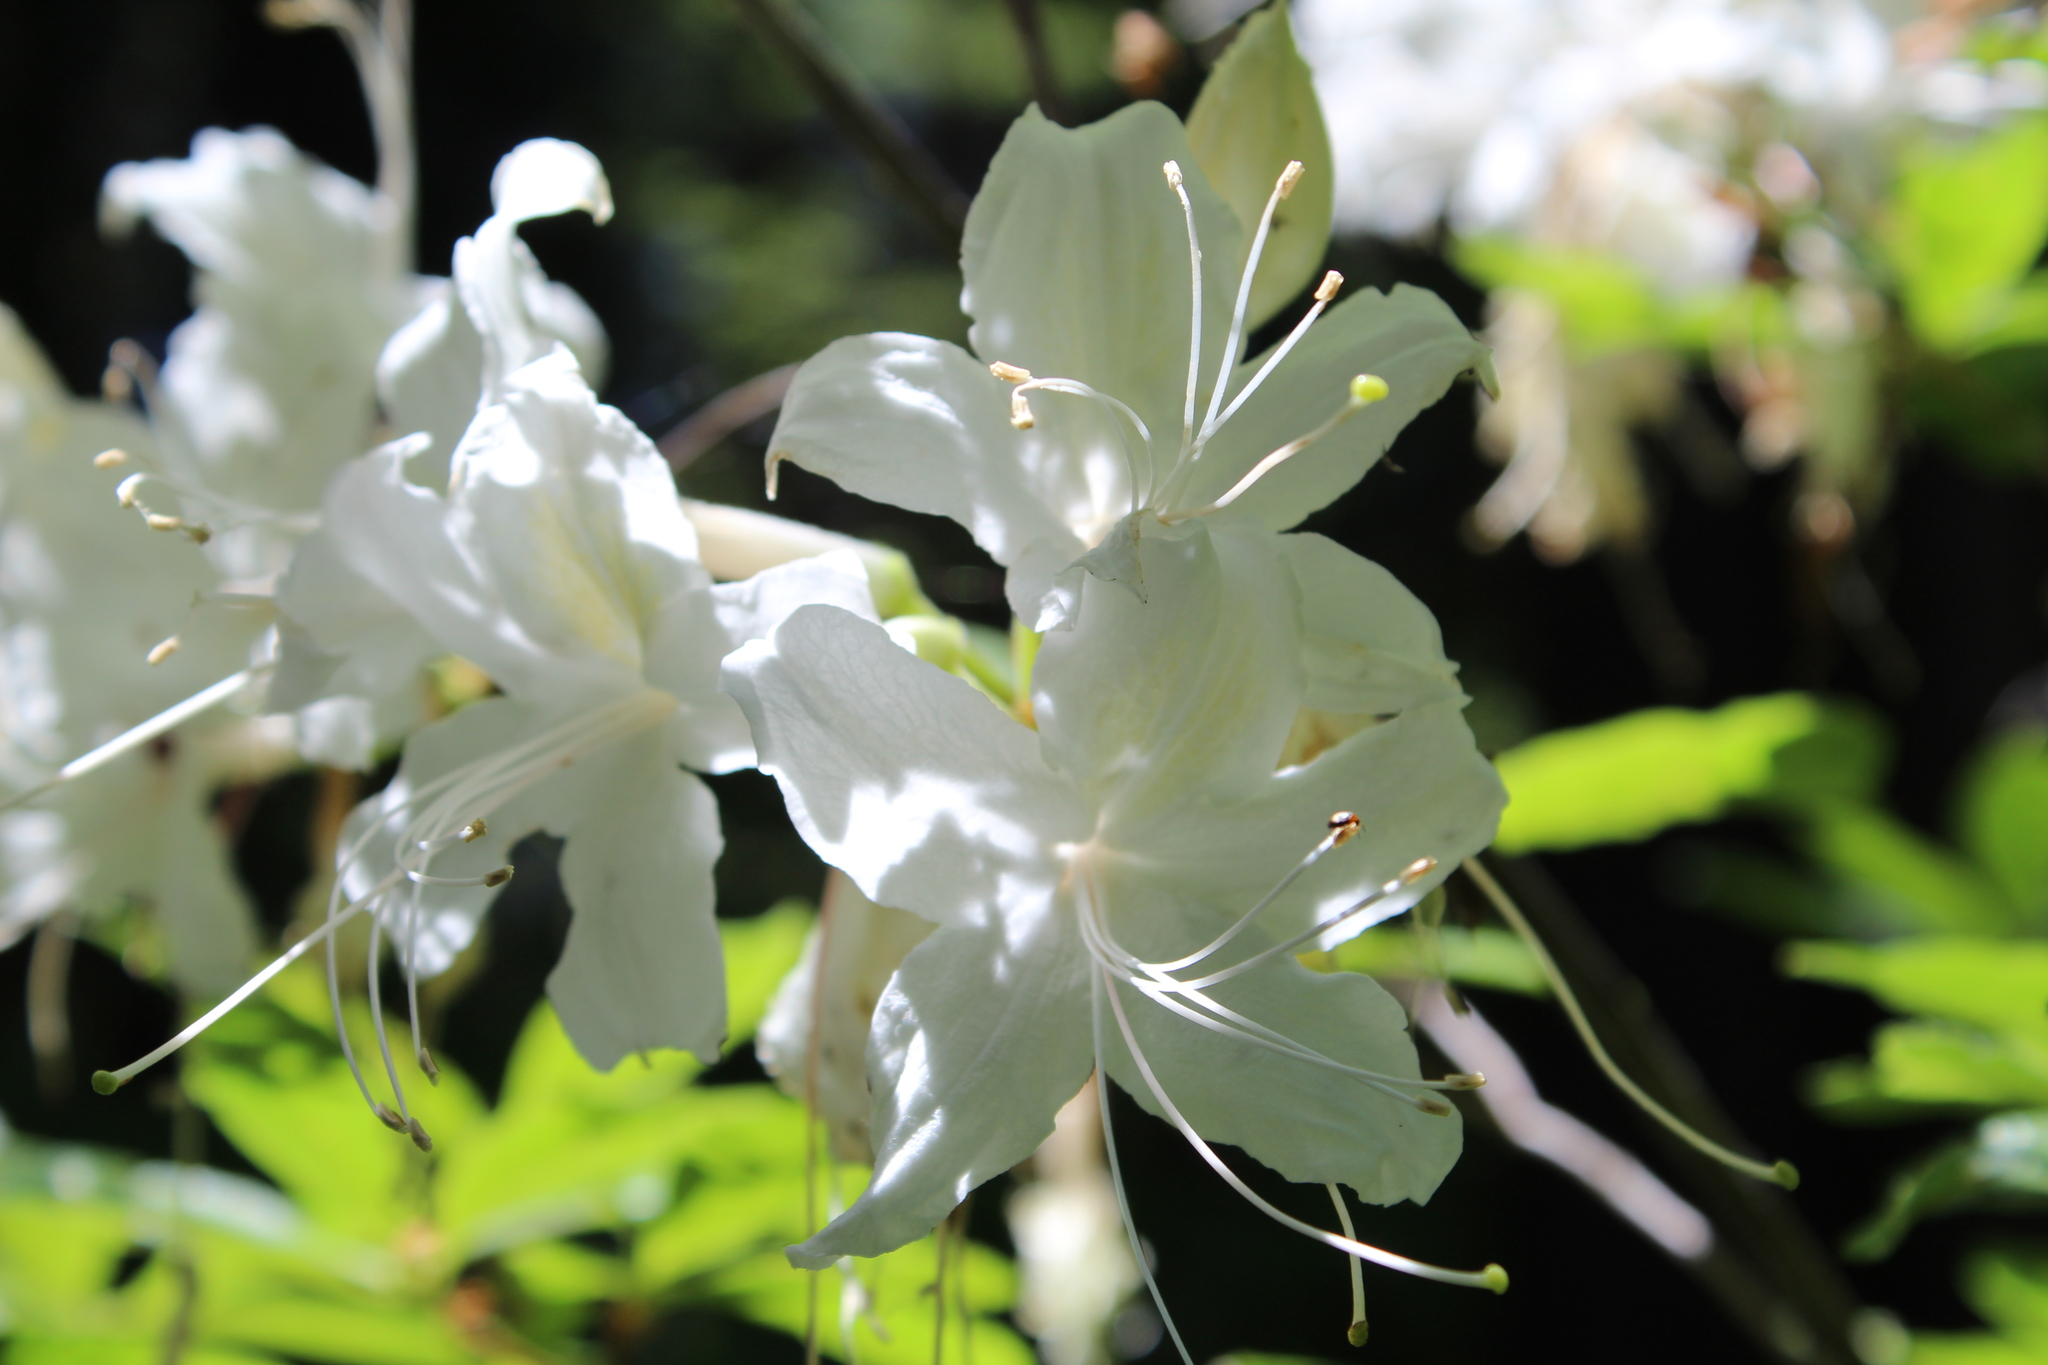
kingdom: Plantae
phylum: Tracheophyta
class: Magnoliopsida
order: Ericales
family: Ericaceae
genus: Rhododendron
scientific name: Rhododendron occidentale
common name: Western azalea
